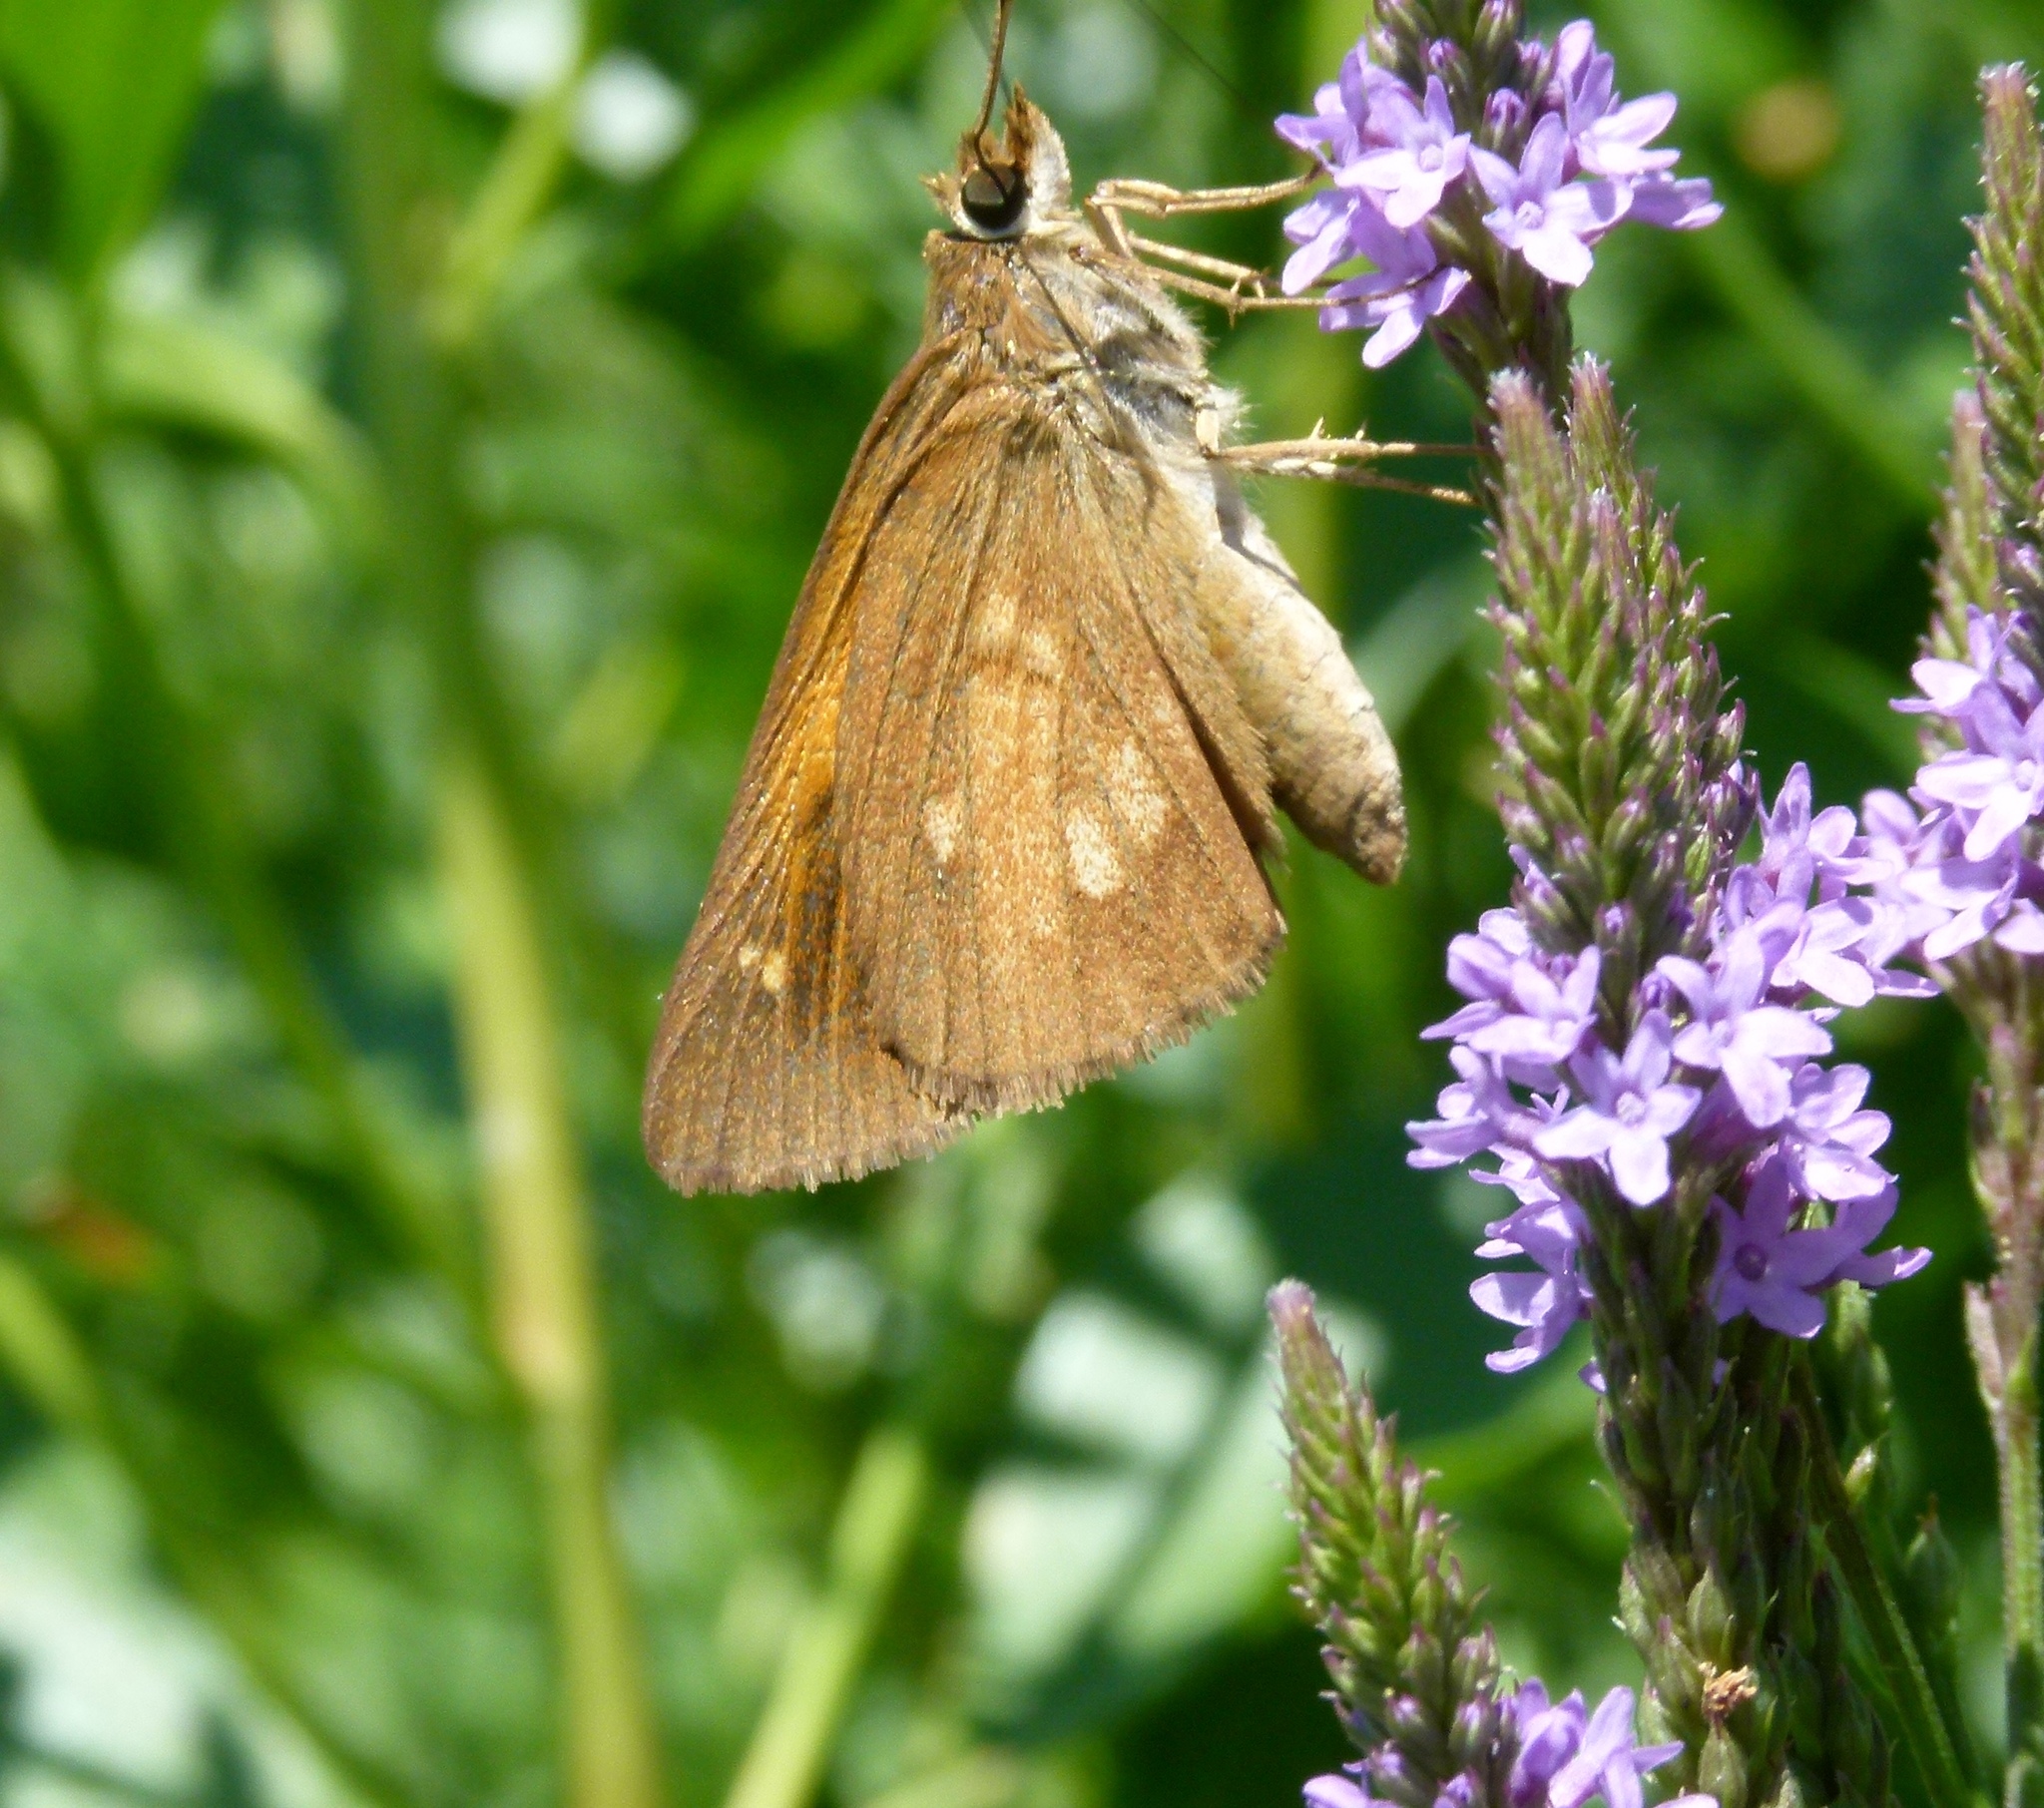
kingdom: Animalia
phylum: Arthropoda
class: Insecta
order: Lepidoptera
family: Hesperiidae
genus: Poanes
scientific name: Poanes viator
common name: Broad-winged skipper
